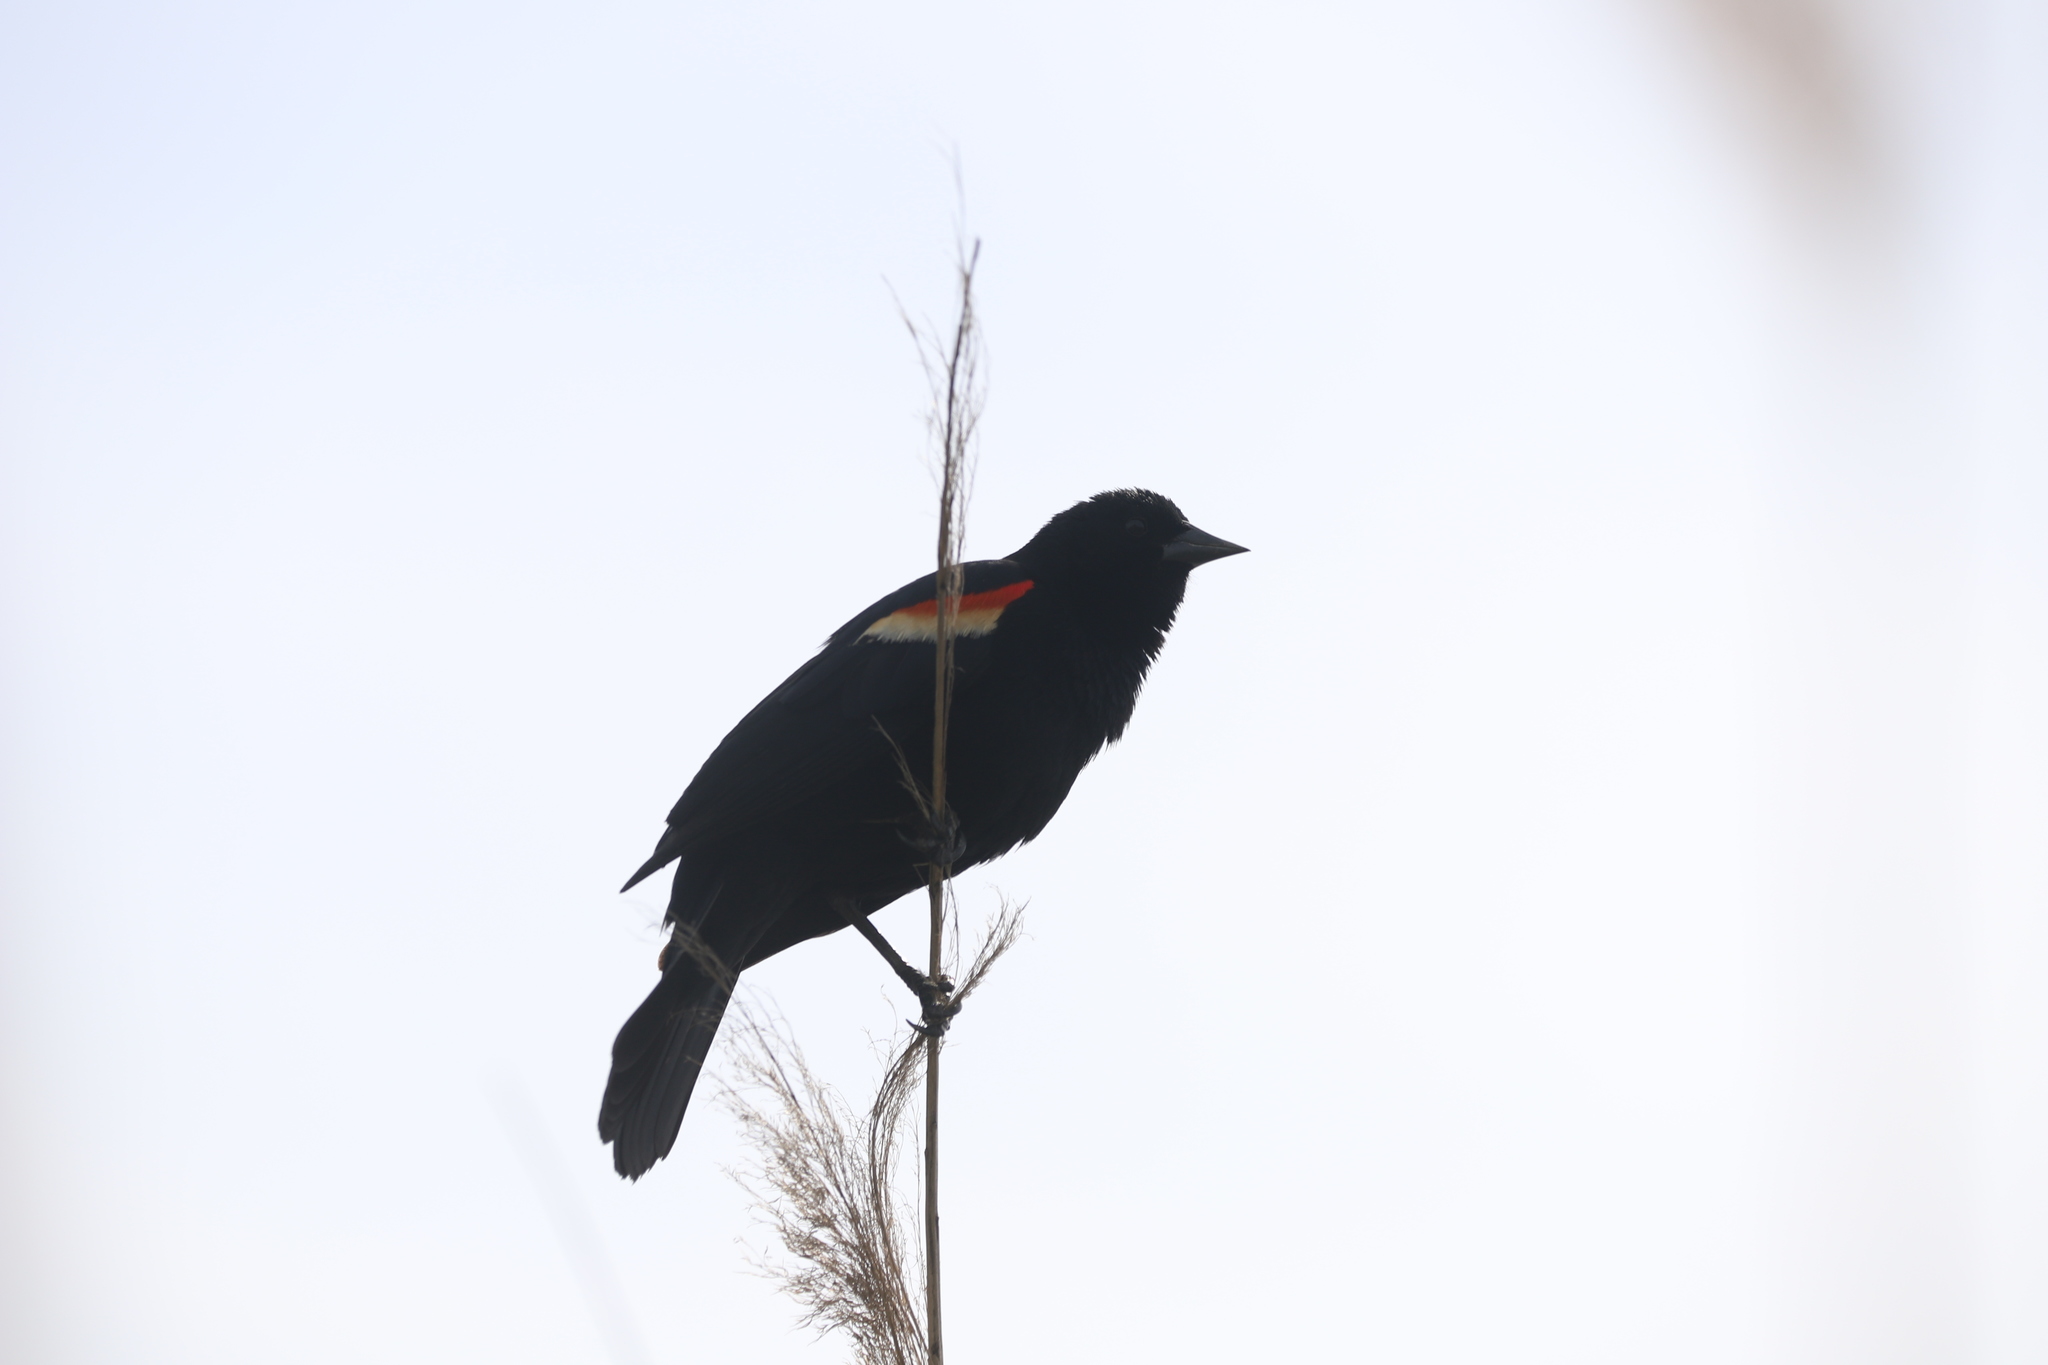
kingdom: Animalia
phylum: Chordata
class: Aves
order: Passeriformes
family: Icteridae
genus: Agelaius
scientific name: Agelaius phoeniceus
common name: Red-winged blackbird
